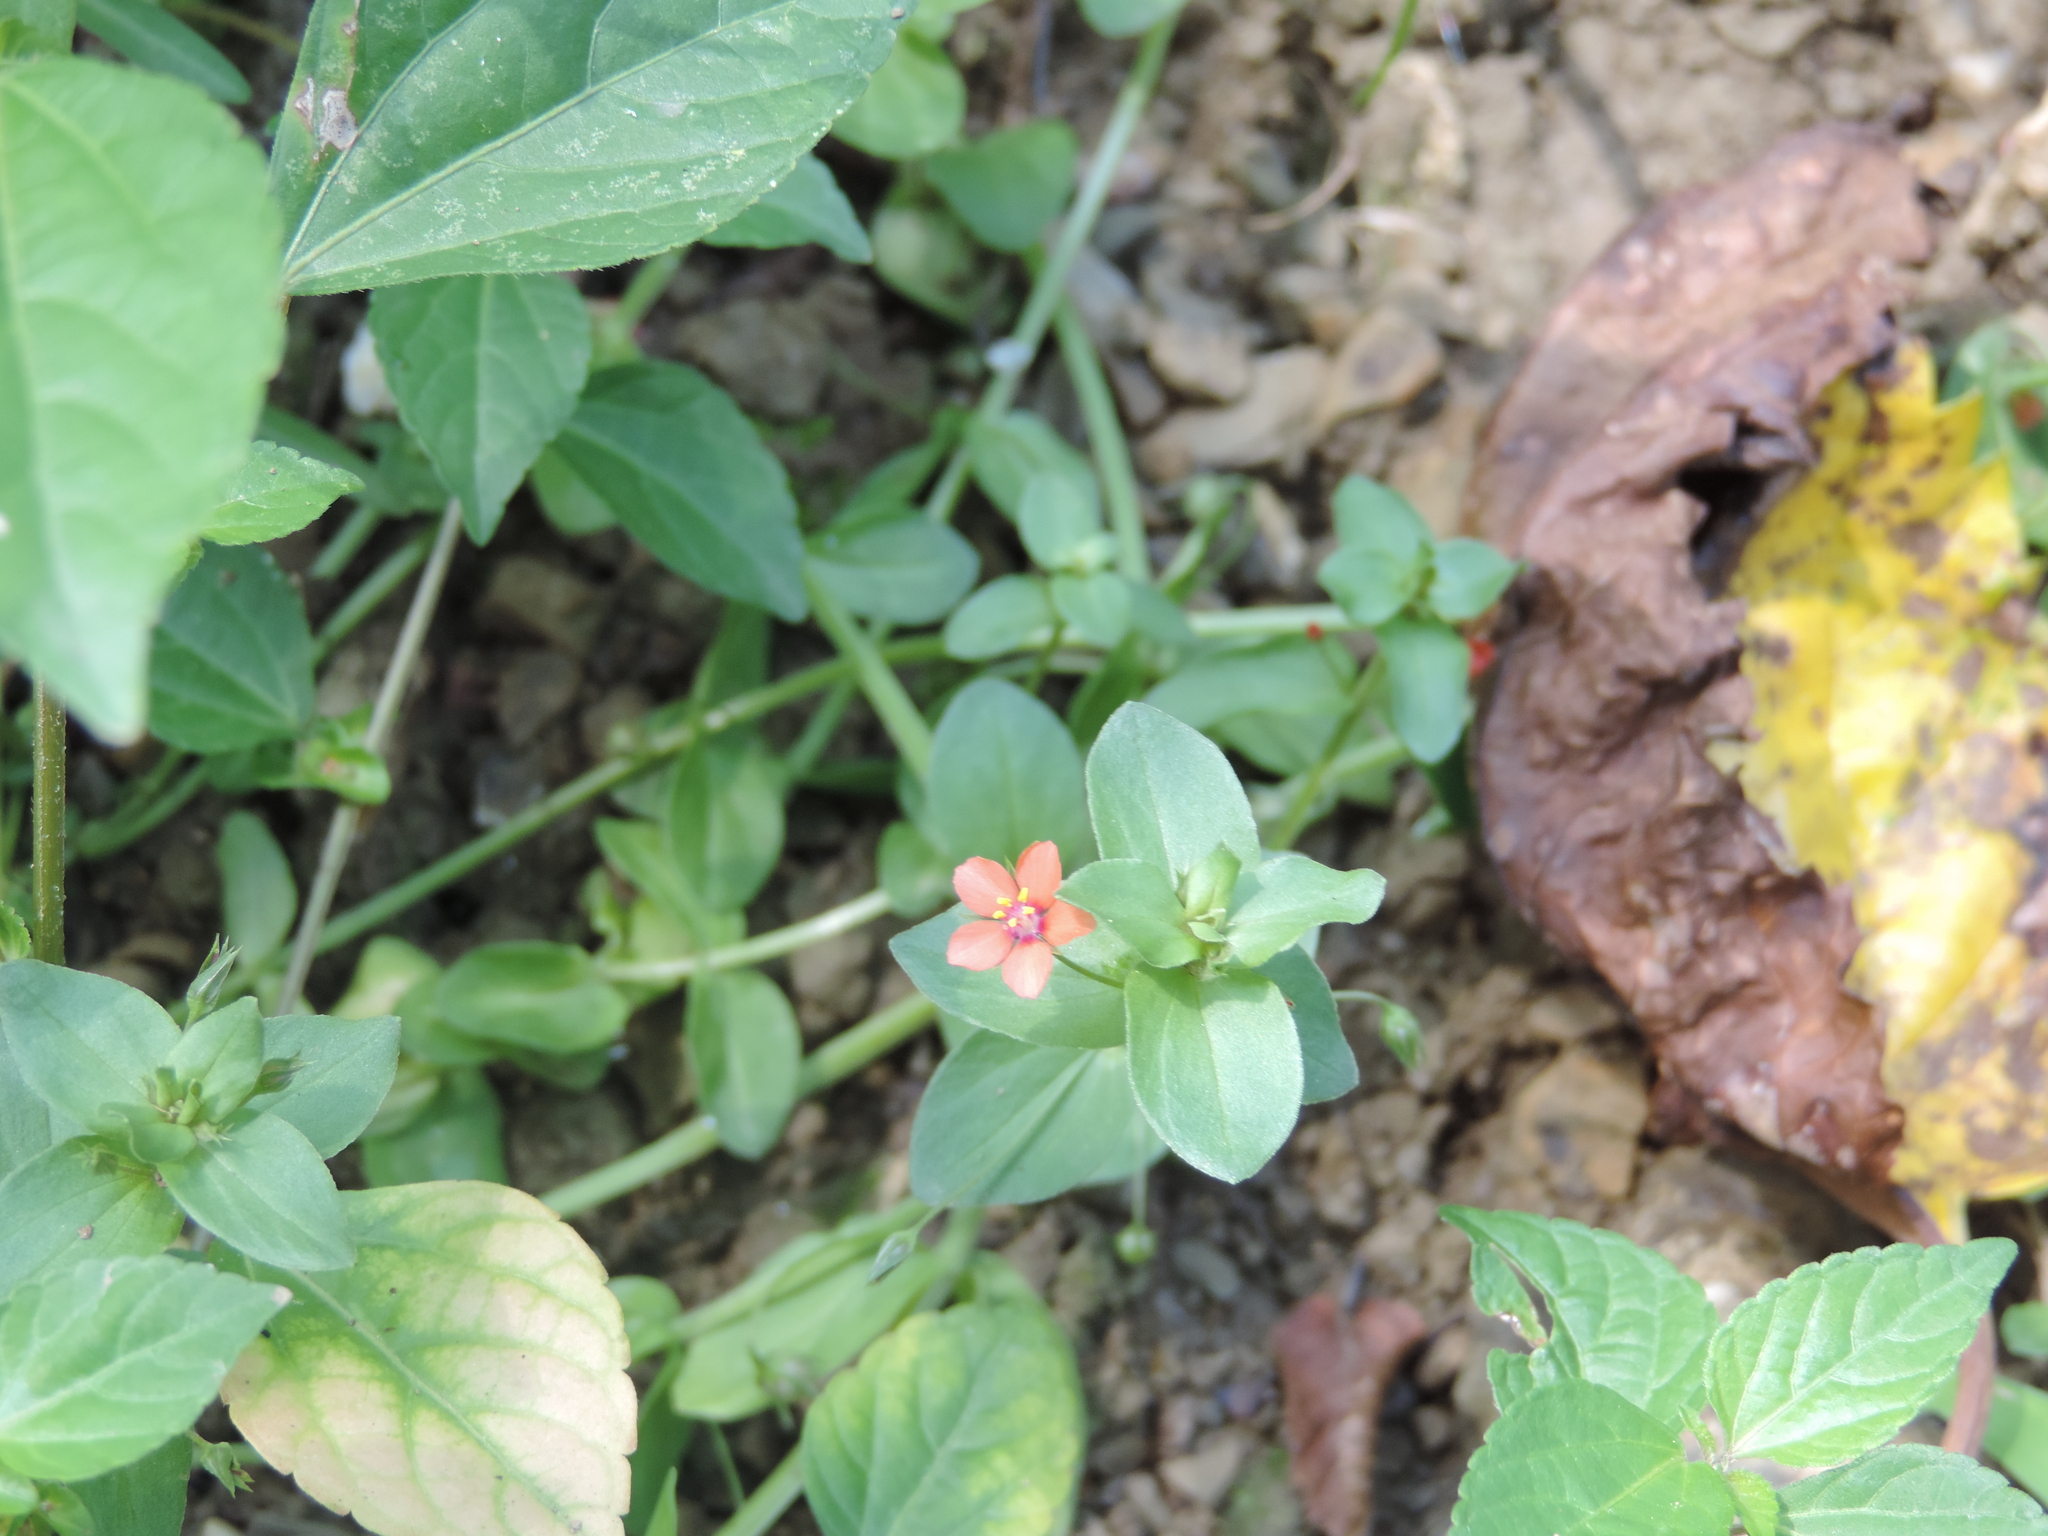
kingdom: Plantae
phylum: Tracheophyta
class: Magnoliopsida
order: Ericales
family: Primulaceae
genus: Lysimachia
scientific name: Lysimachia arvensis
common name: Scarlet pimpernel
